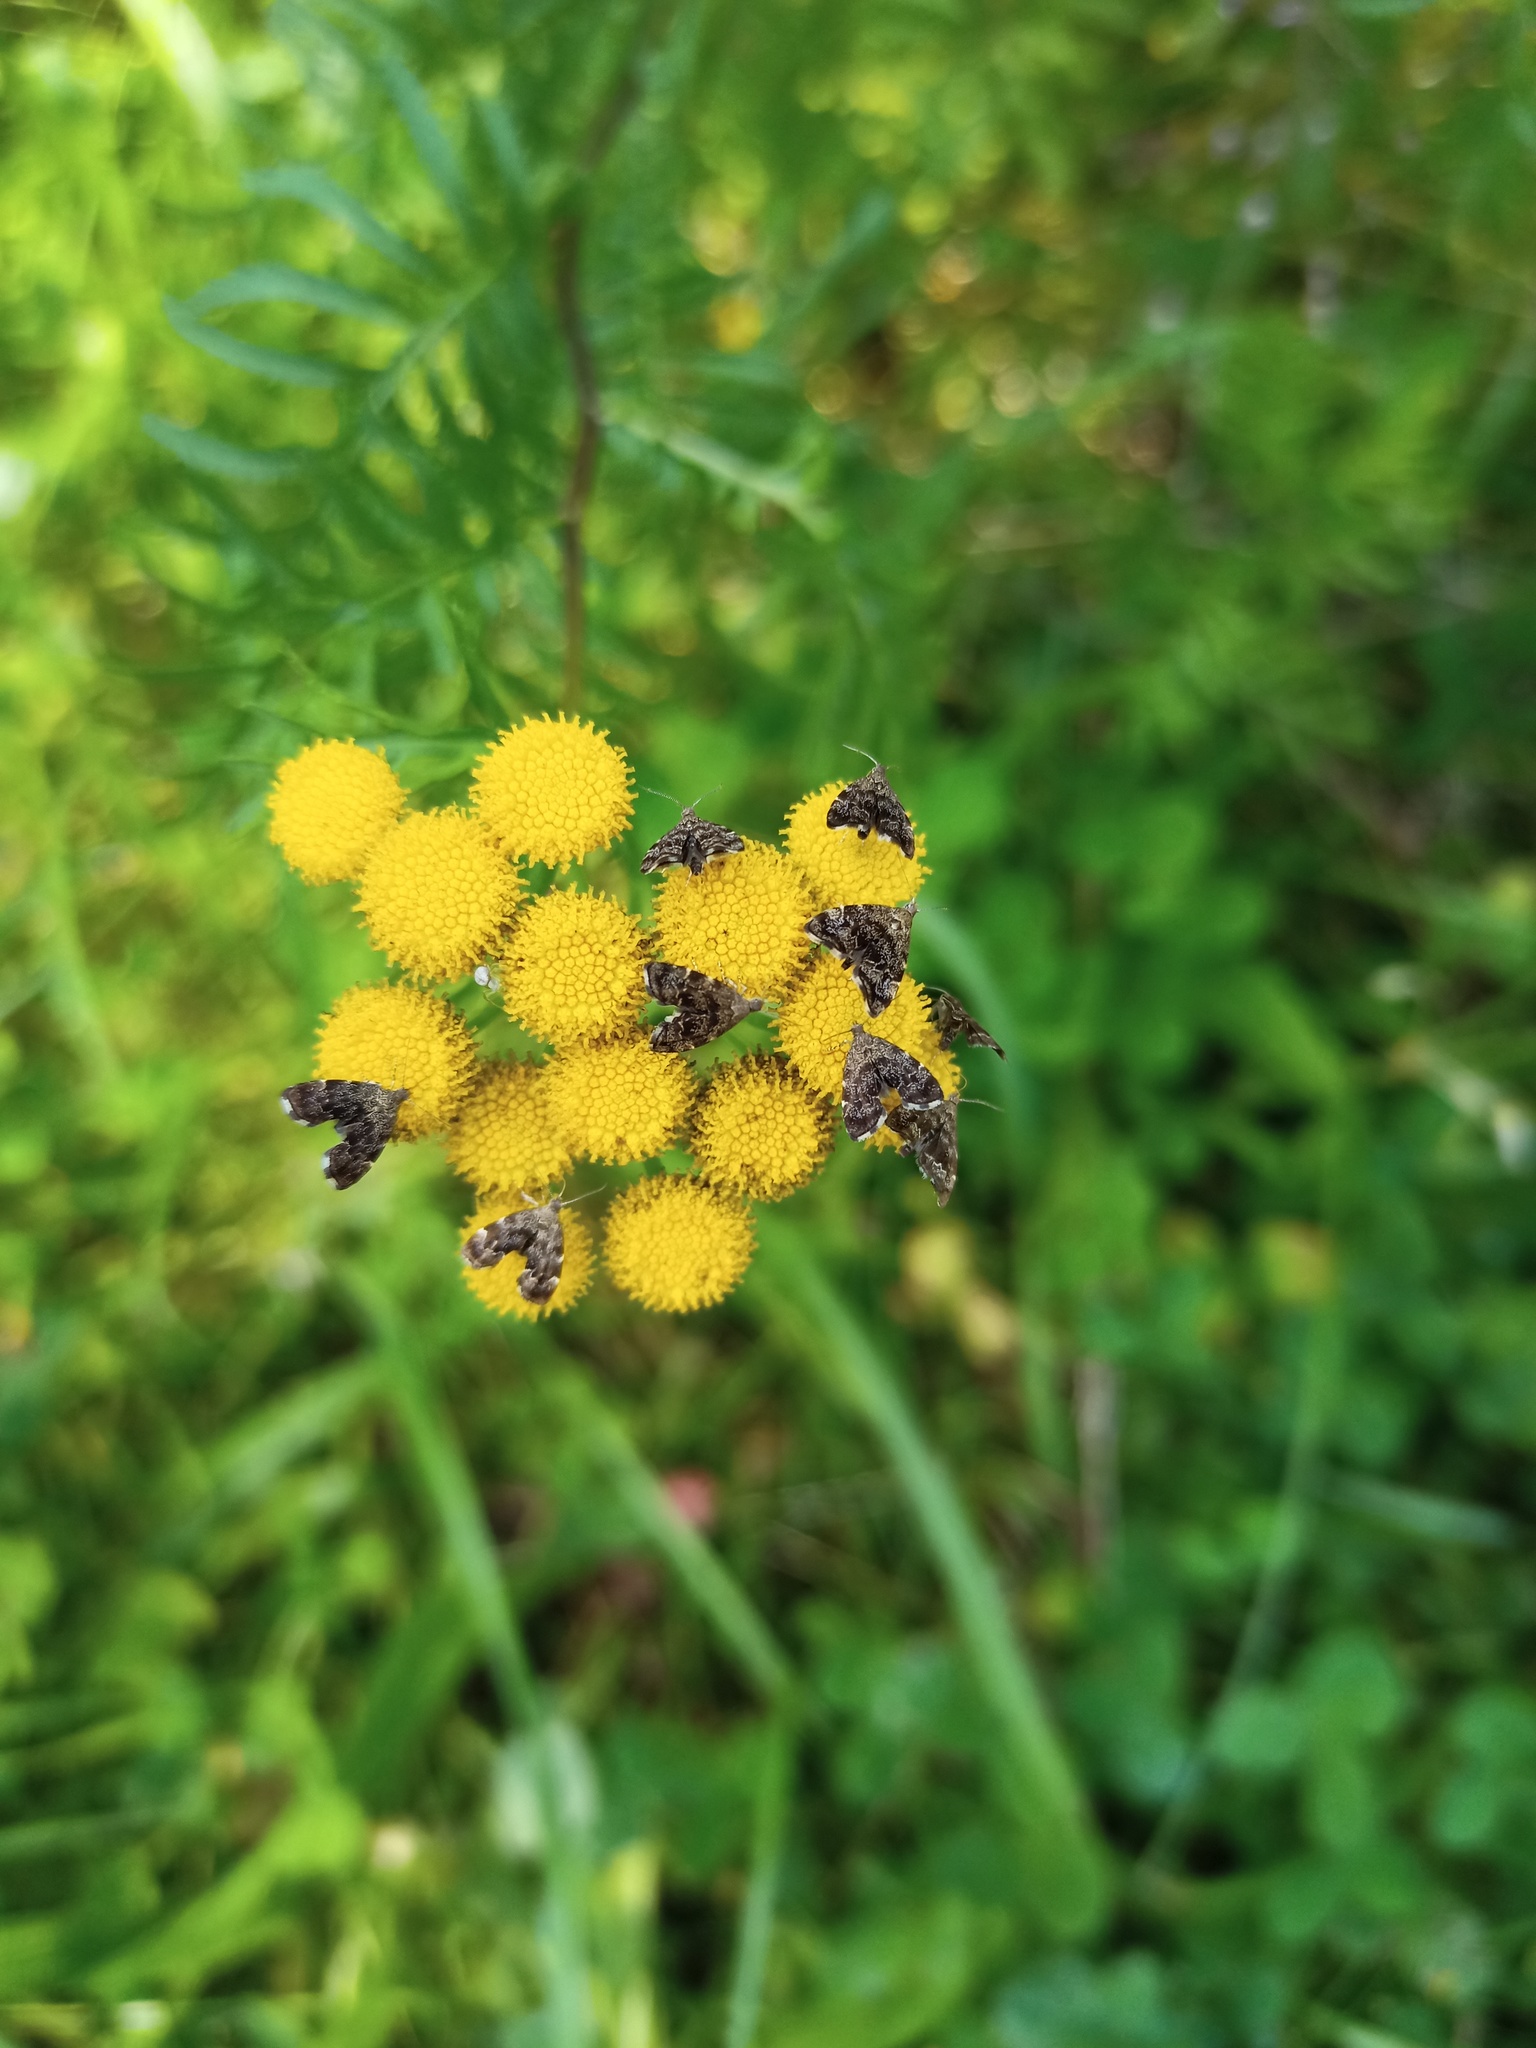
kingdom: Plantae
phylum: Tracheophyta
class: Magnoliopsida
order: Asterales
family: Asteraceae
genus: Tanacetum
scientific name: Tanacetum vulgare
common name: Common tansy
